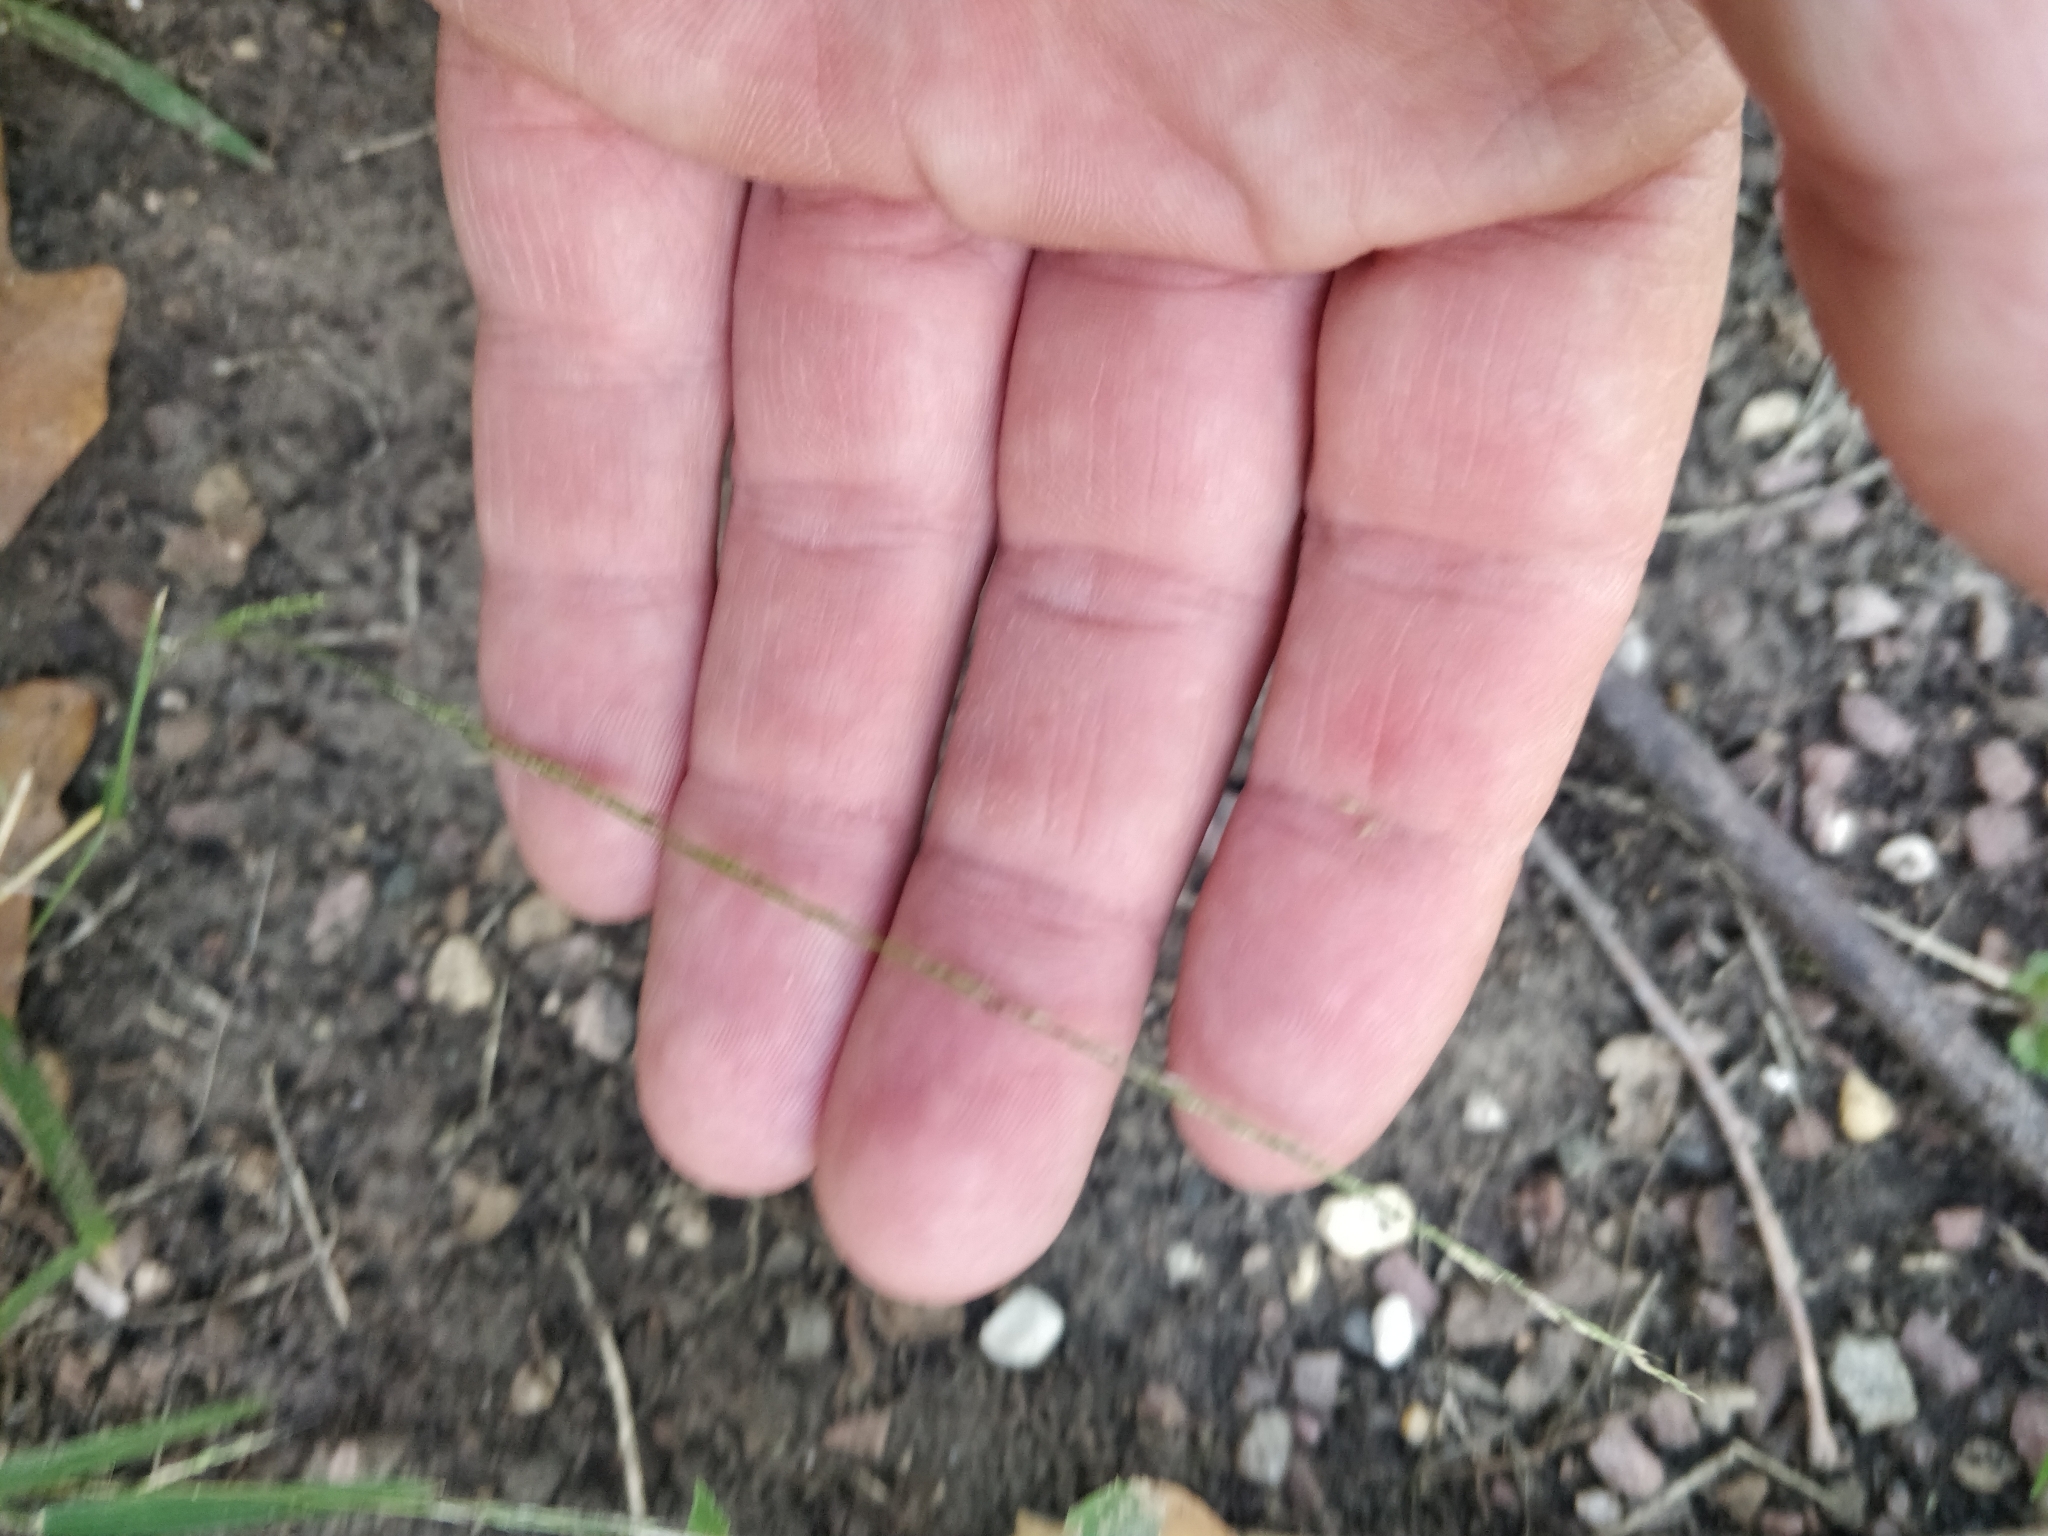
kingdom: Plantae
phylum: Tracheophyta
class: Liliopsida
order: Poales
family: Poaceae
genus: Muhlenbergia
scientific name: Muhlenbergia schreberi
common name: Nimblewill
